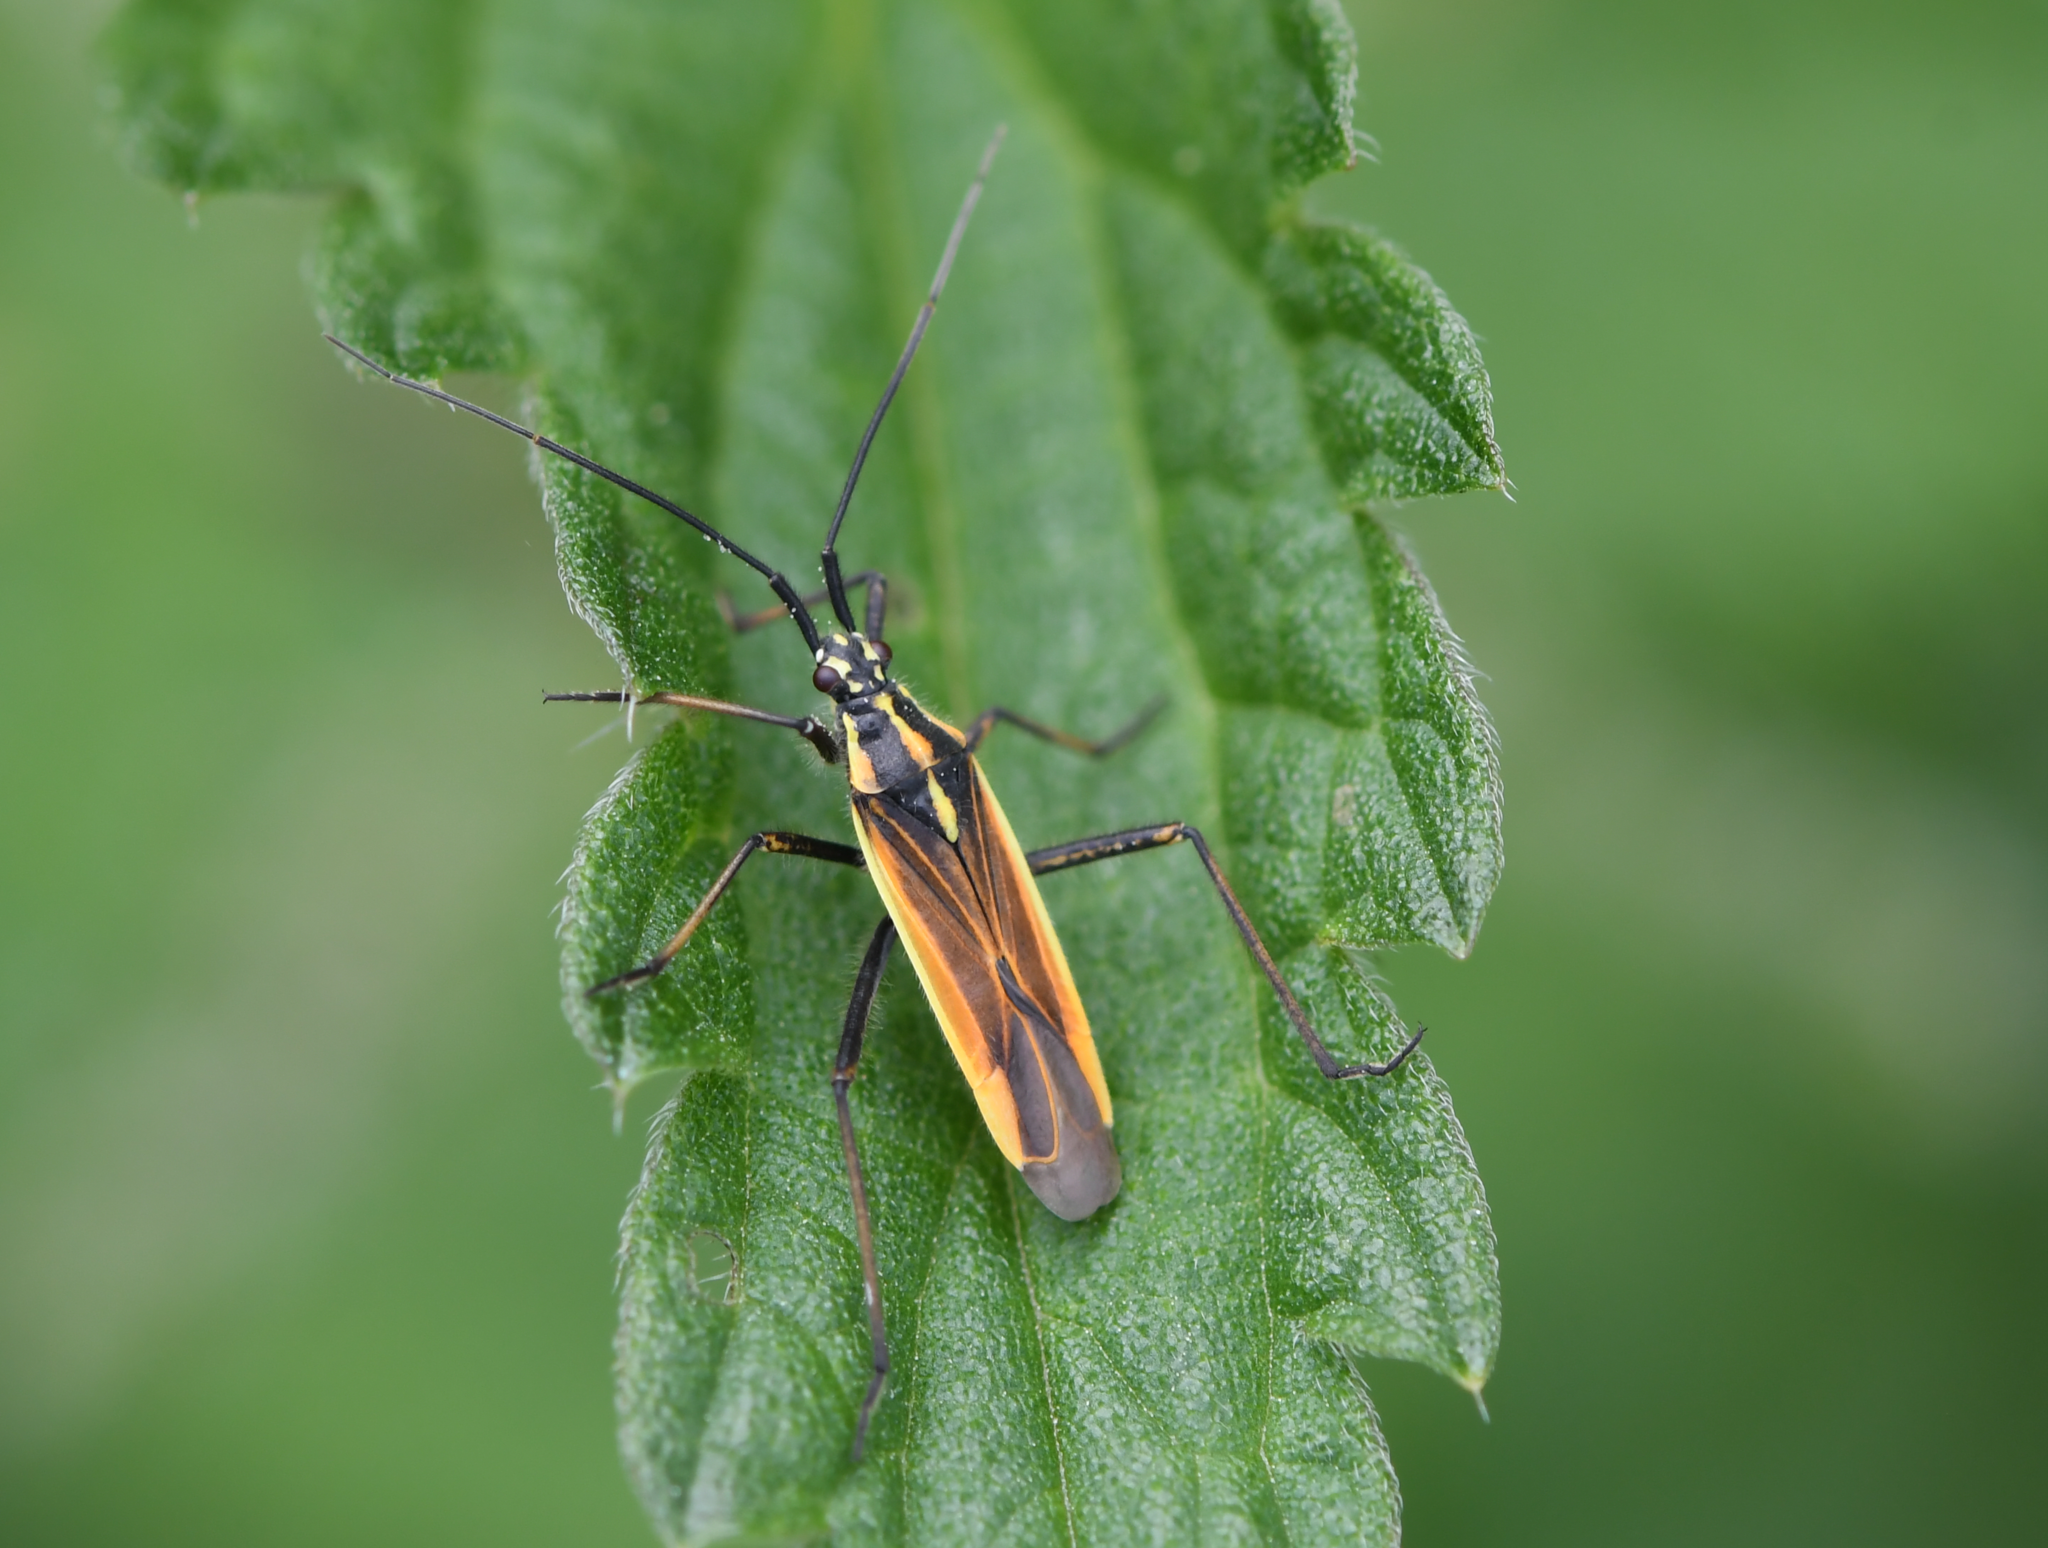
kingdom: Animalia
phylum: Arthropoda
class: Insecta
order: Hemiptera
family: Miridae
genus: Leptopterna
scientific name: Leptopterna dolabrata
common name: Meadow plant bug
